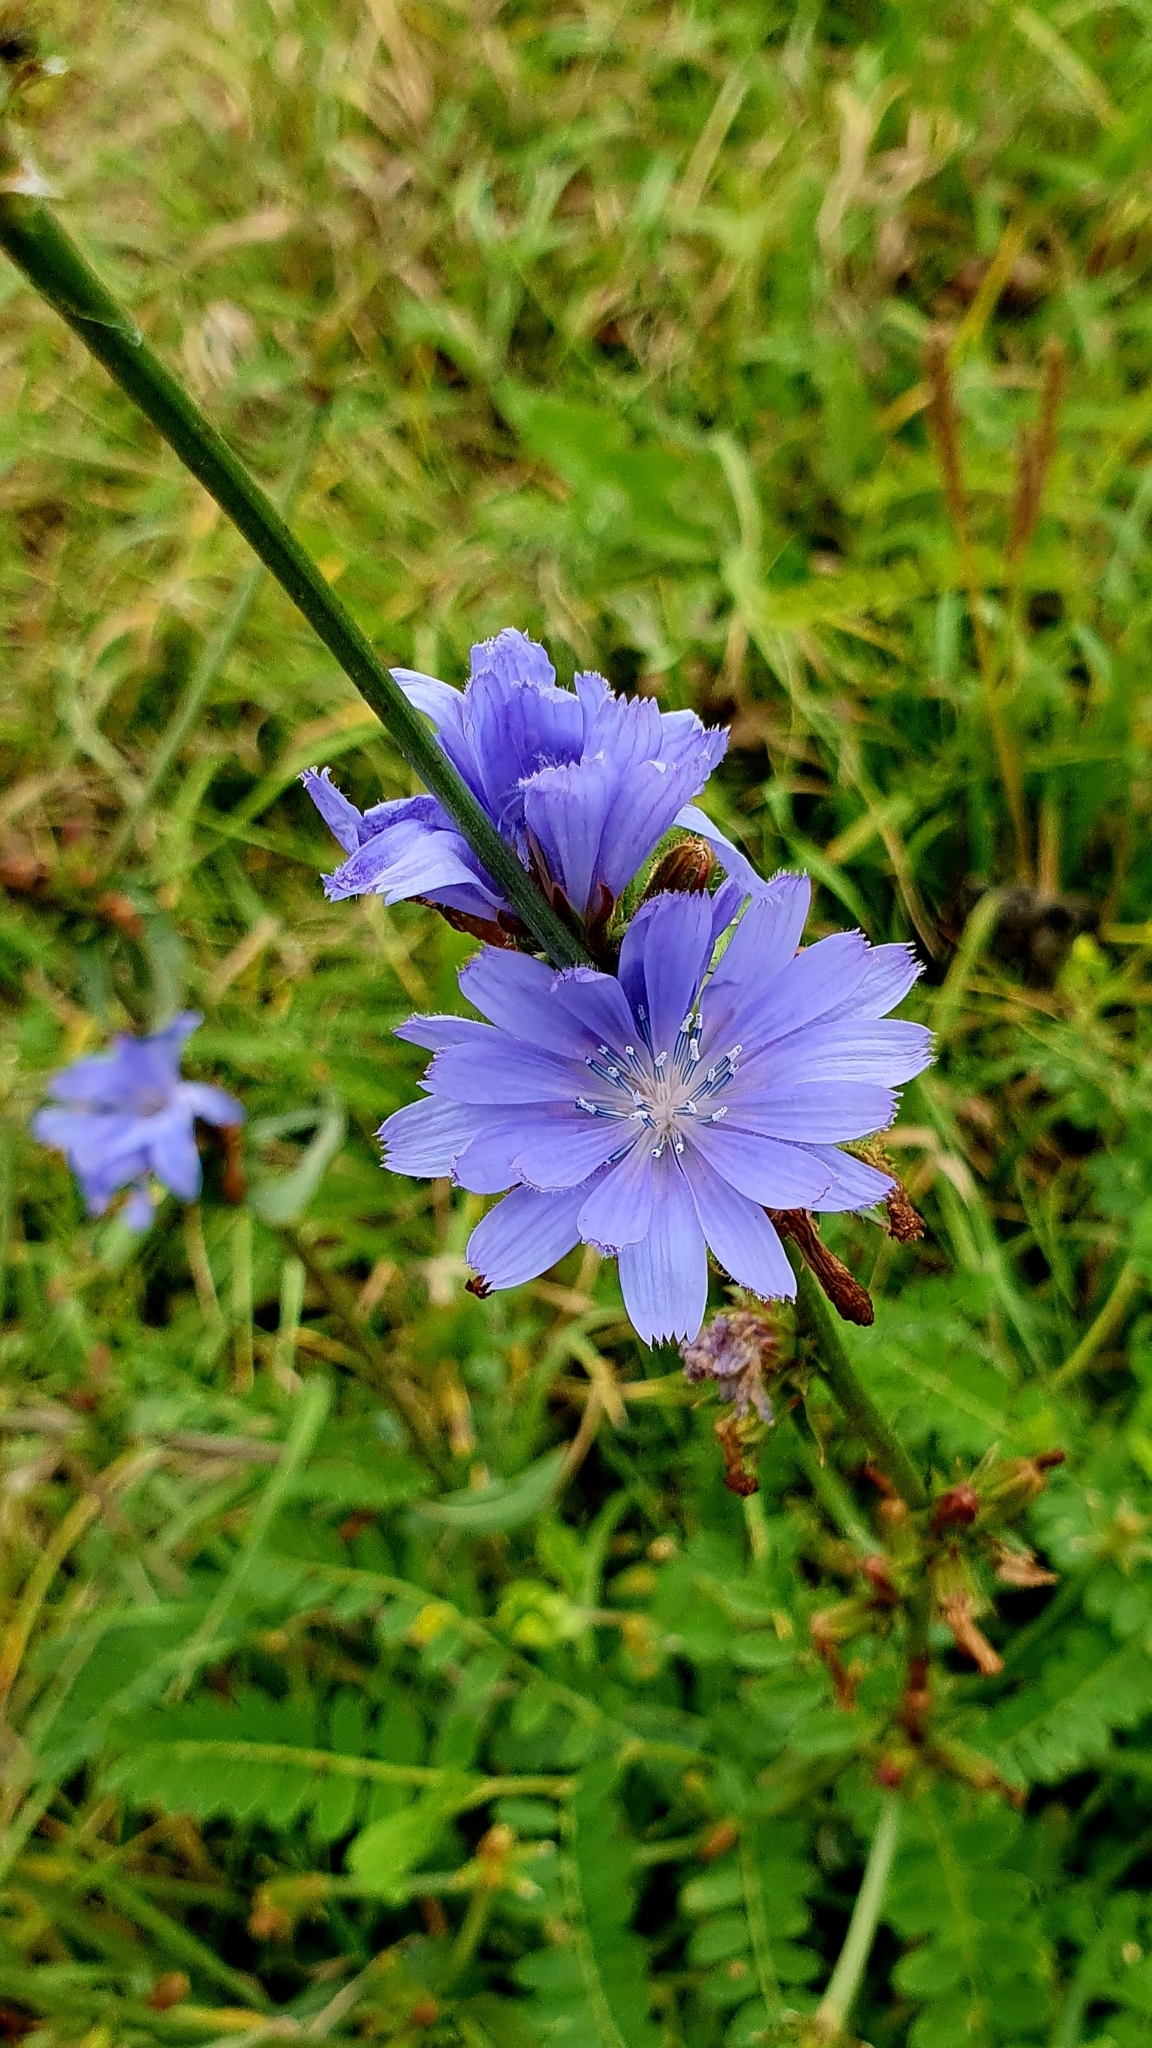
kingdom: Plantae
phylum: Tracheophyta
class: Magnoliopsida
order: Asterales
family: Asteraceae
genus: Cichorium
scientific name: Cichorium intybus
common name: Chicory
